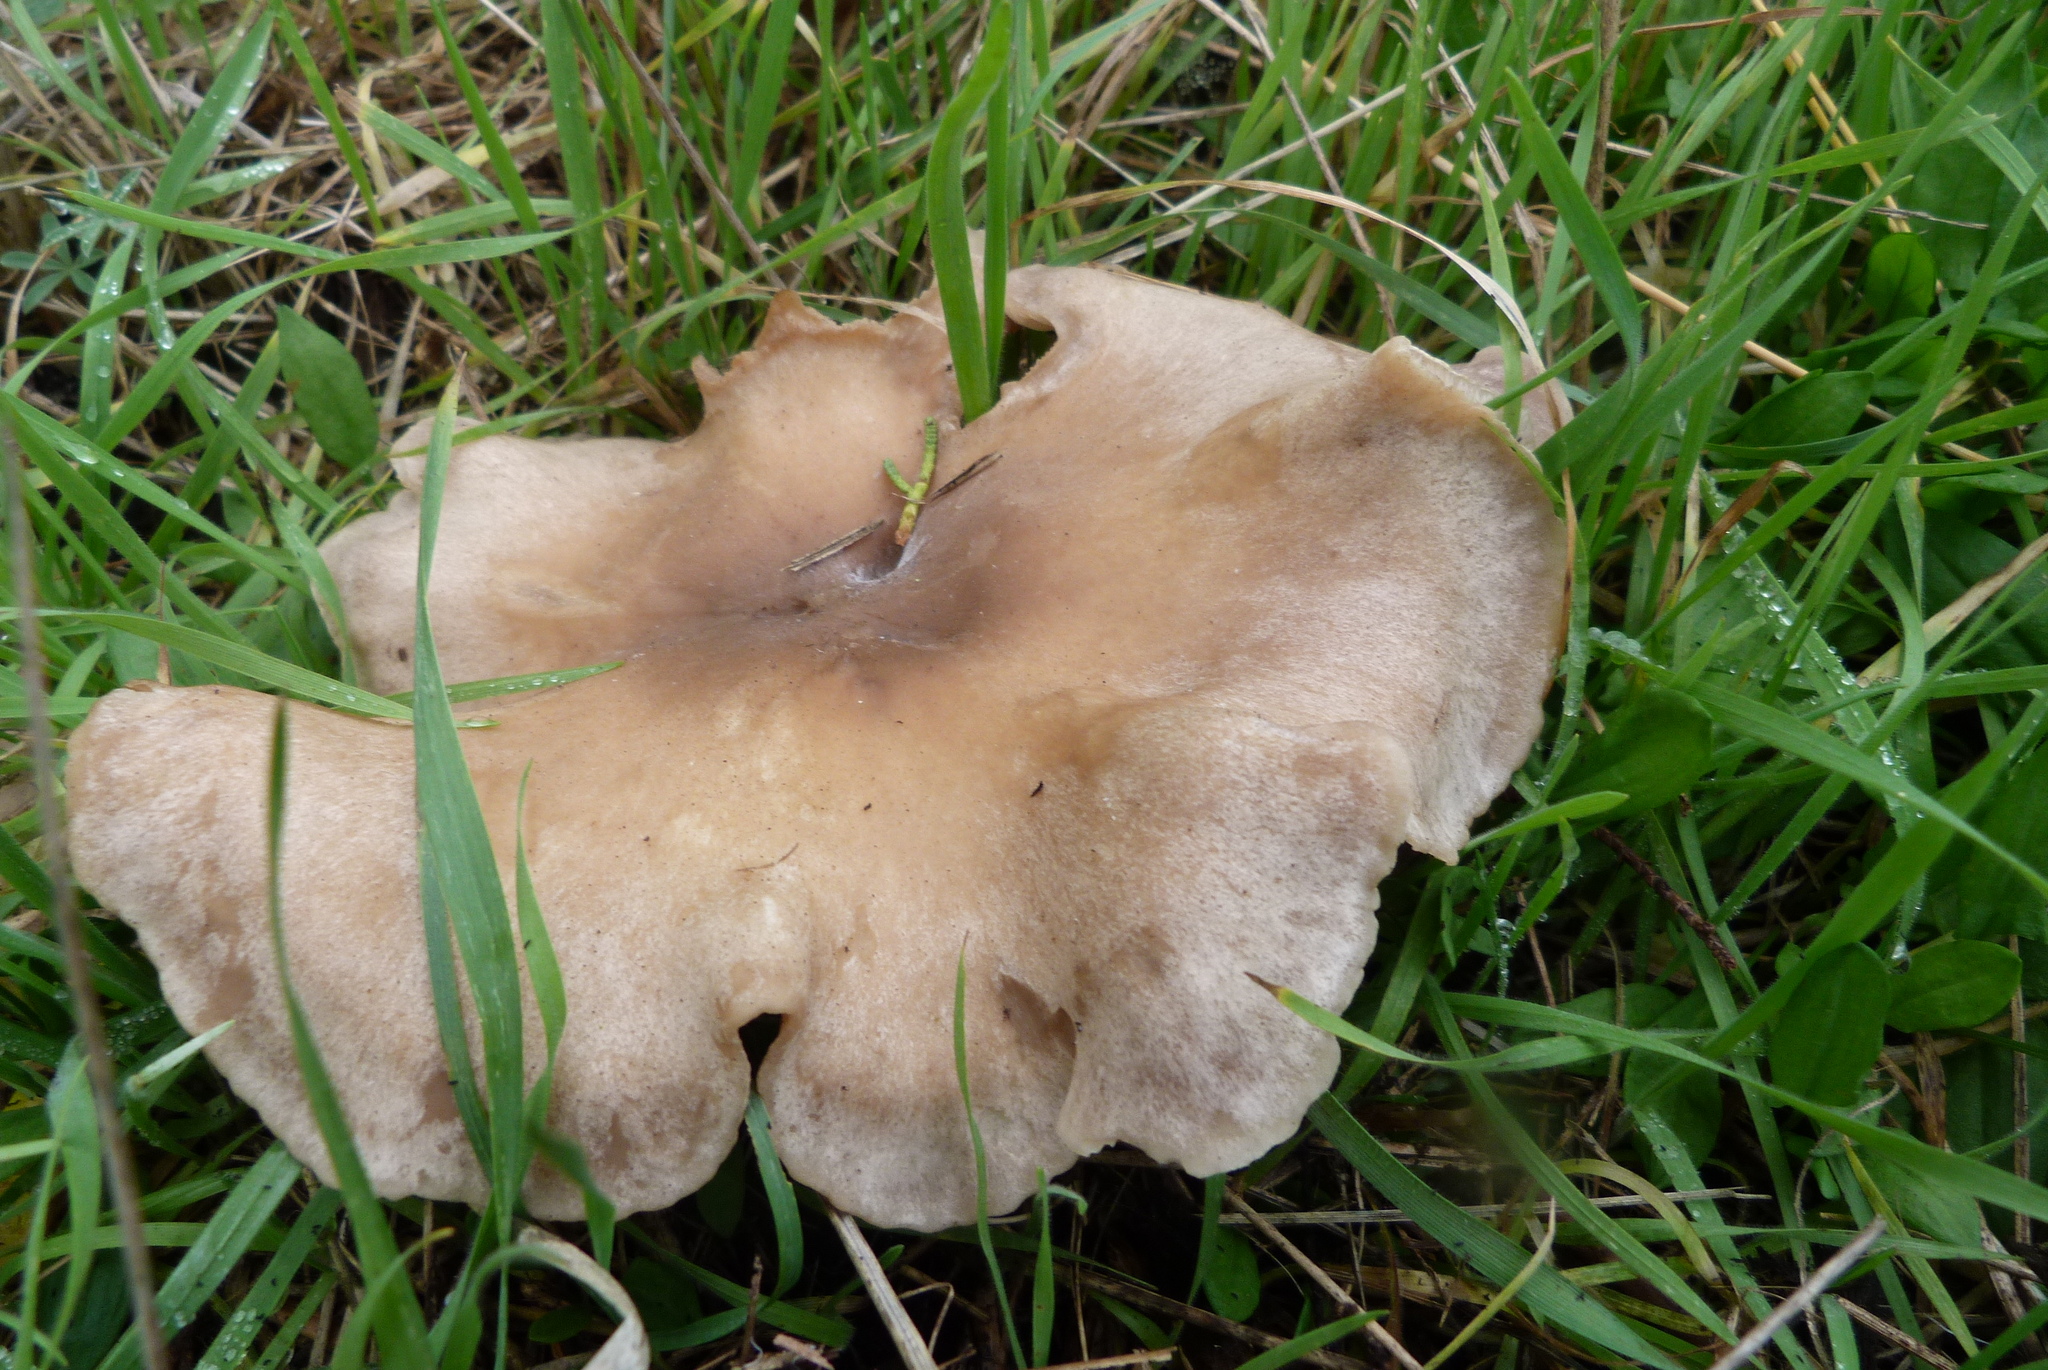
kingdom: Fungi
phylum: Basidiomycota
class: Agaricomycetes
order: Agaricales
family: Tricholomataceae
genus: Lepista
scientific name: Lepista luscina
